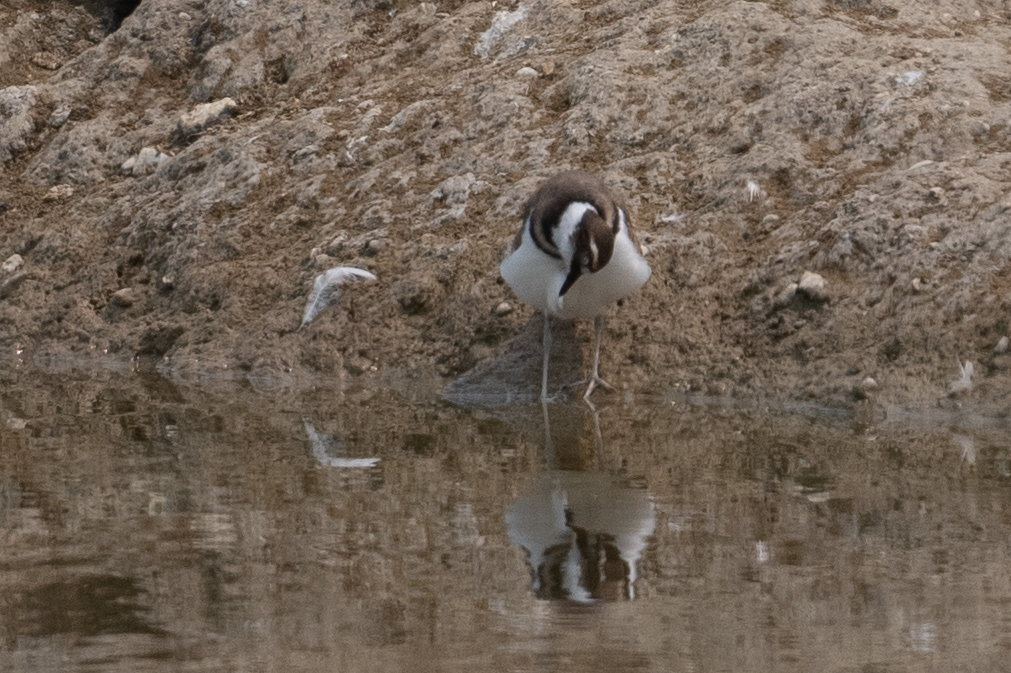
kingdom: Animalia
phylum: Chordata
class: Aves
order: Charadriiformes
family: Charadriidae
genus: Charadrius
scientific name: Charadrius vociferus
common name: Killdeer
